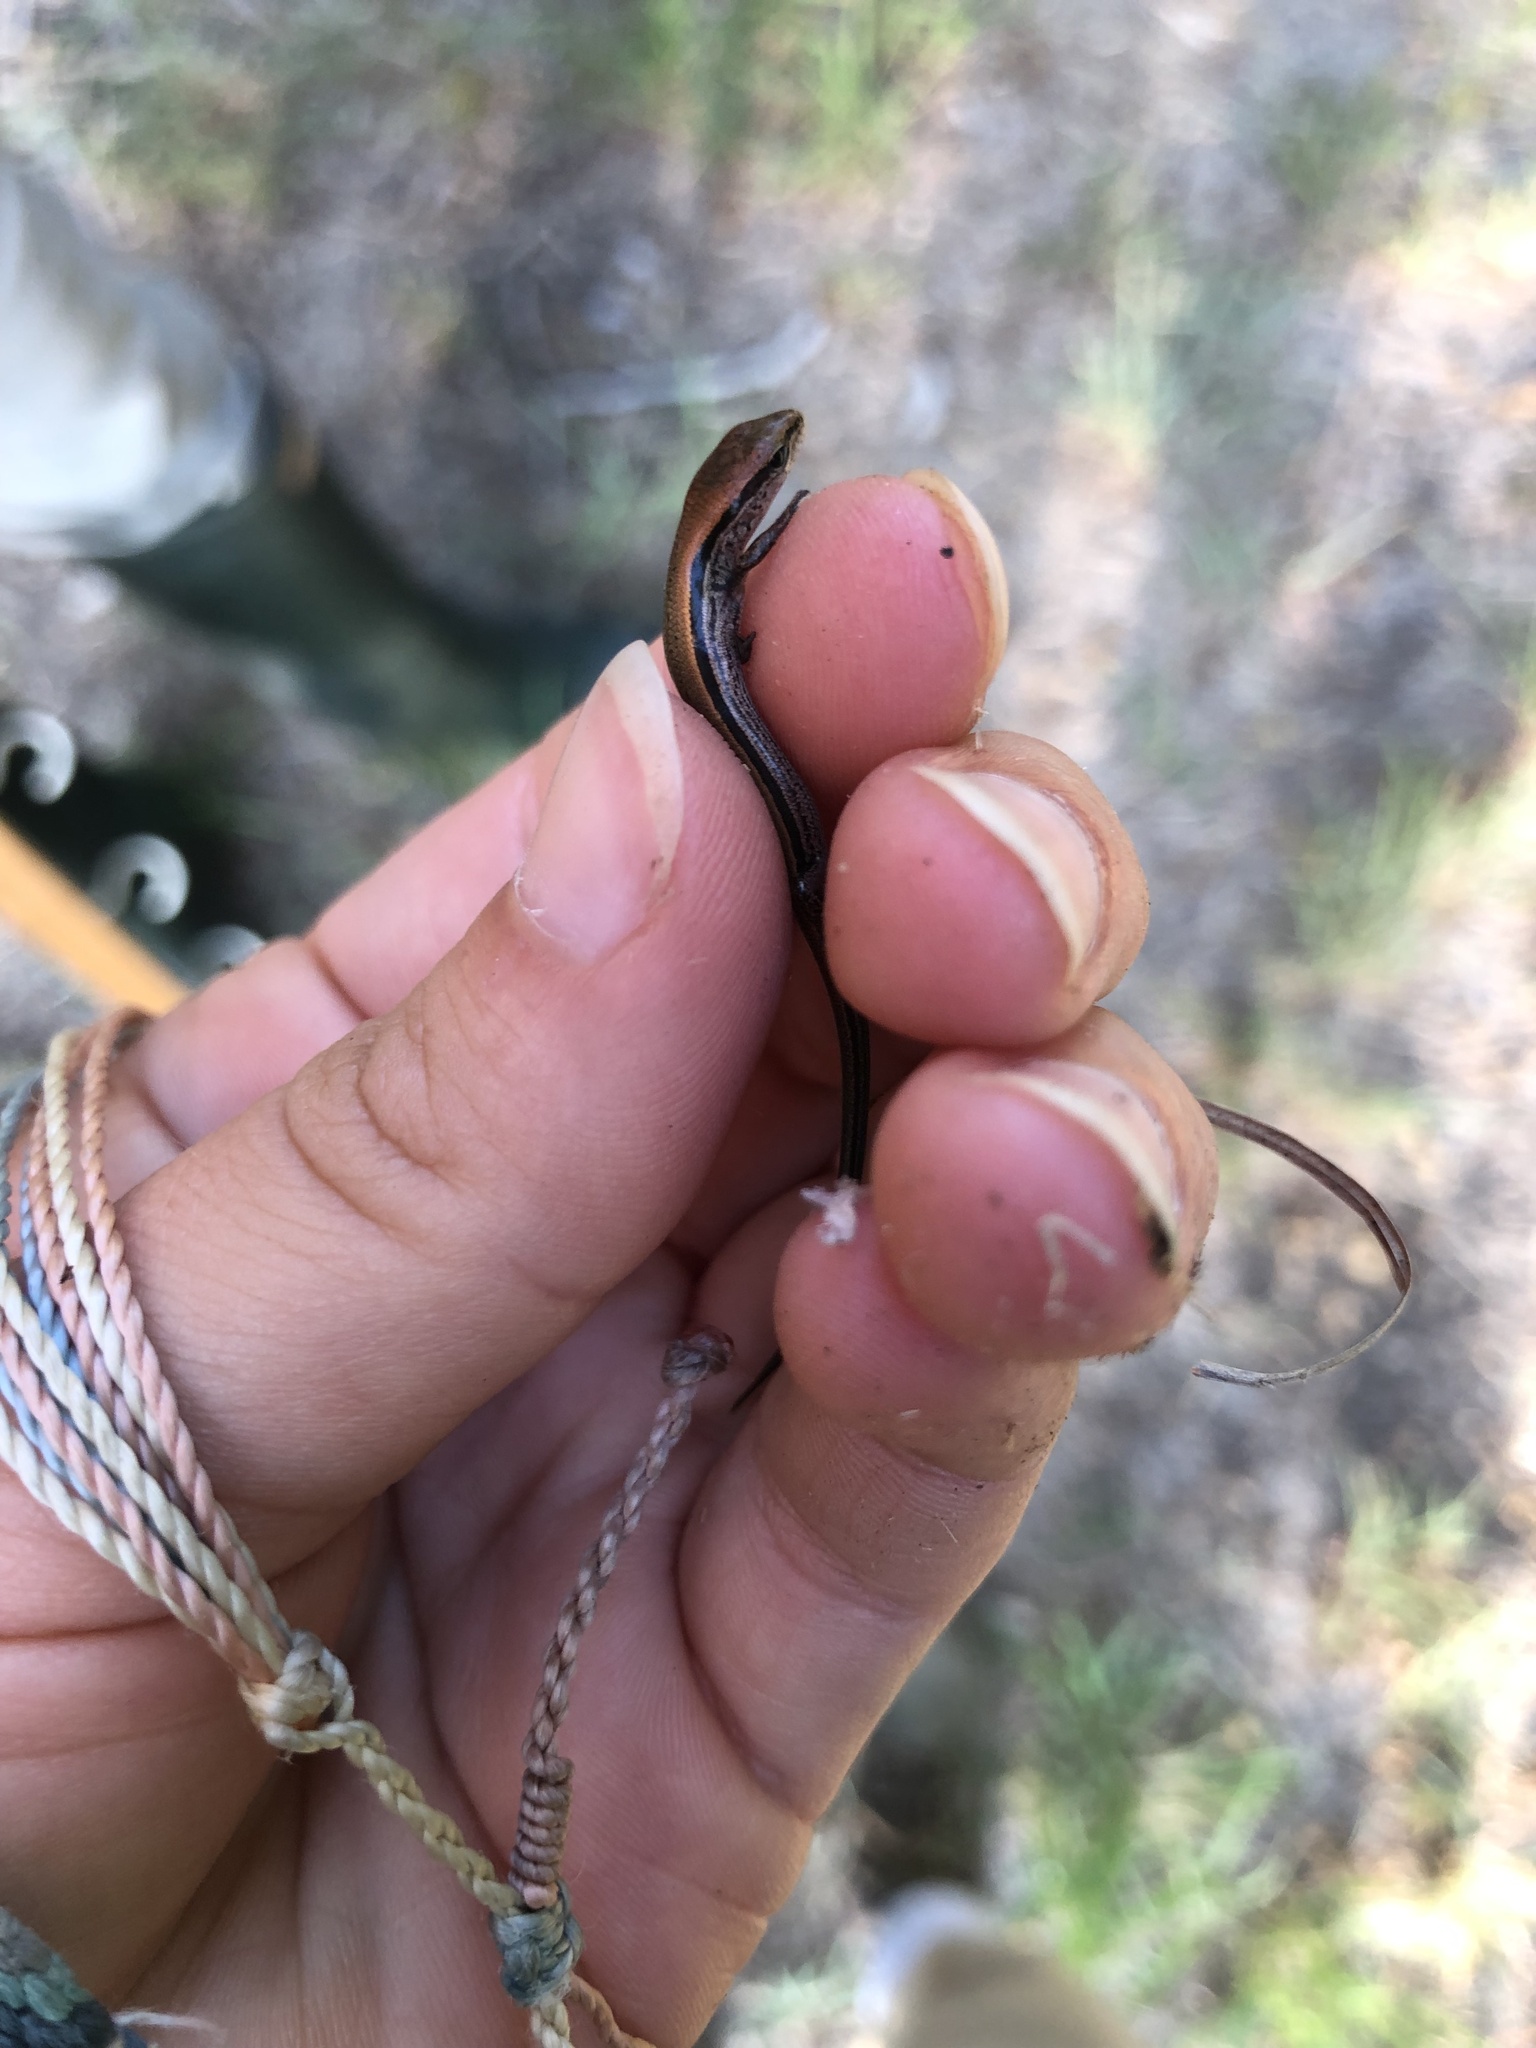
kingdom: Animalia
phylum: Chordata
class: Squamata
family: Scincidae
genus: Scincella
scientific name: Scincella lateralis
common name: Ground skink
